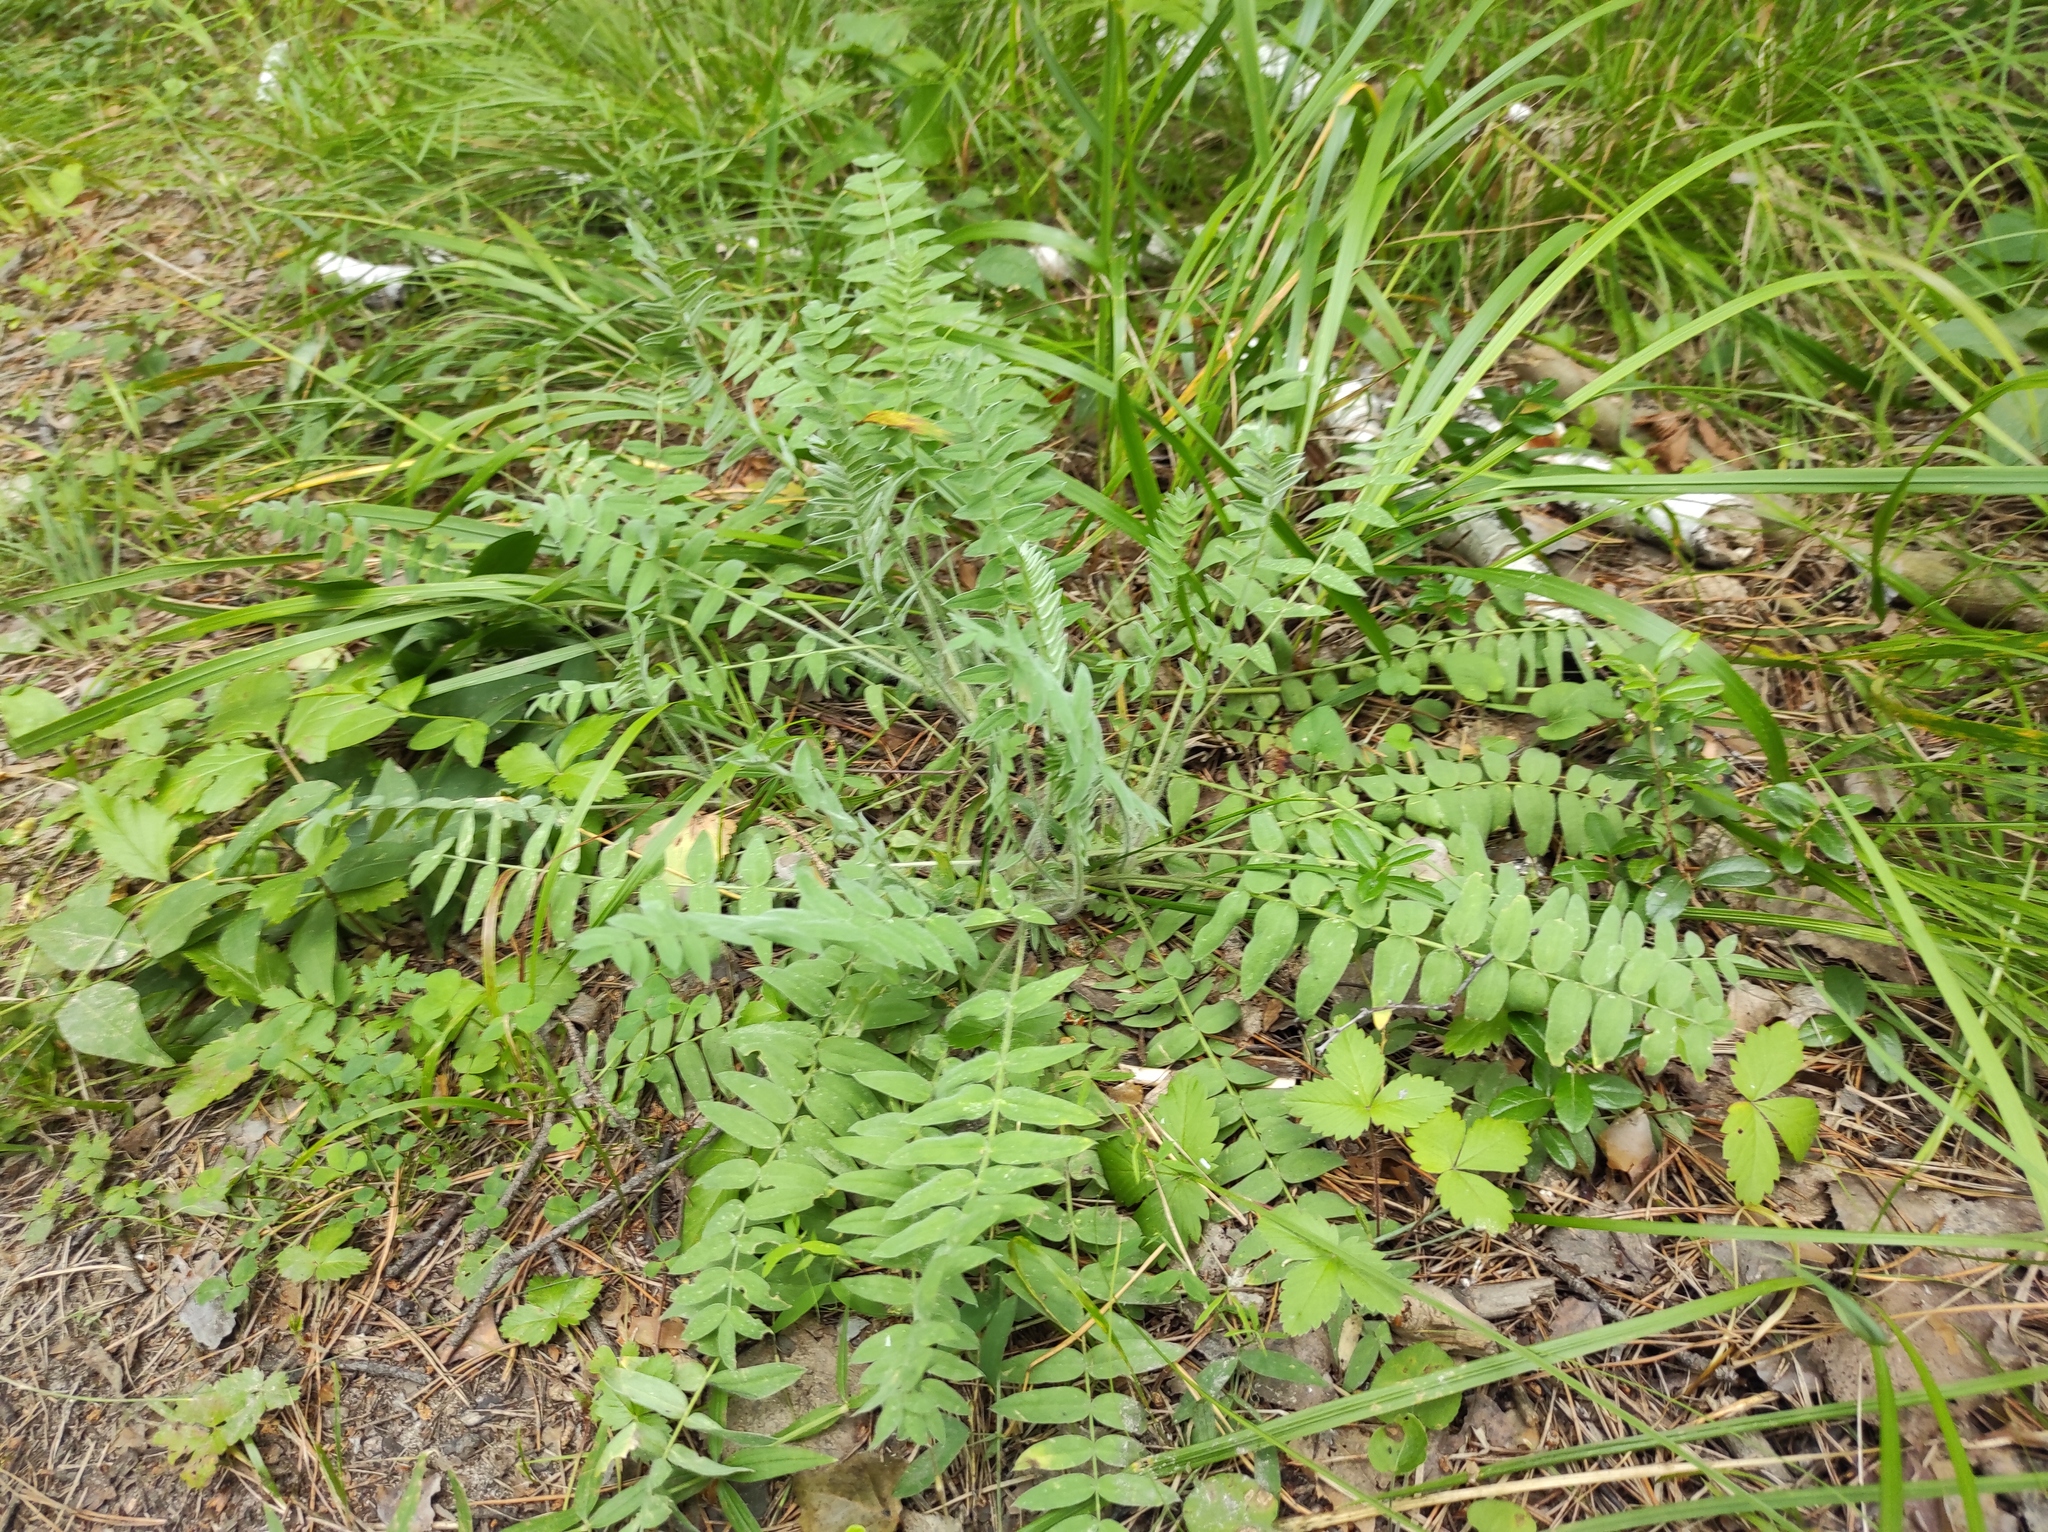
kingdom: Plantae
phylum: Tracheophyta
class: Magnoliopsida
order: Fabales
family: Fabaceae
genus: Oxytropis
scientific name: Oxytropis campanulata
